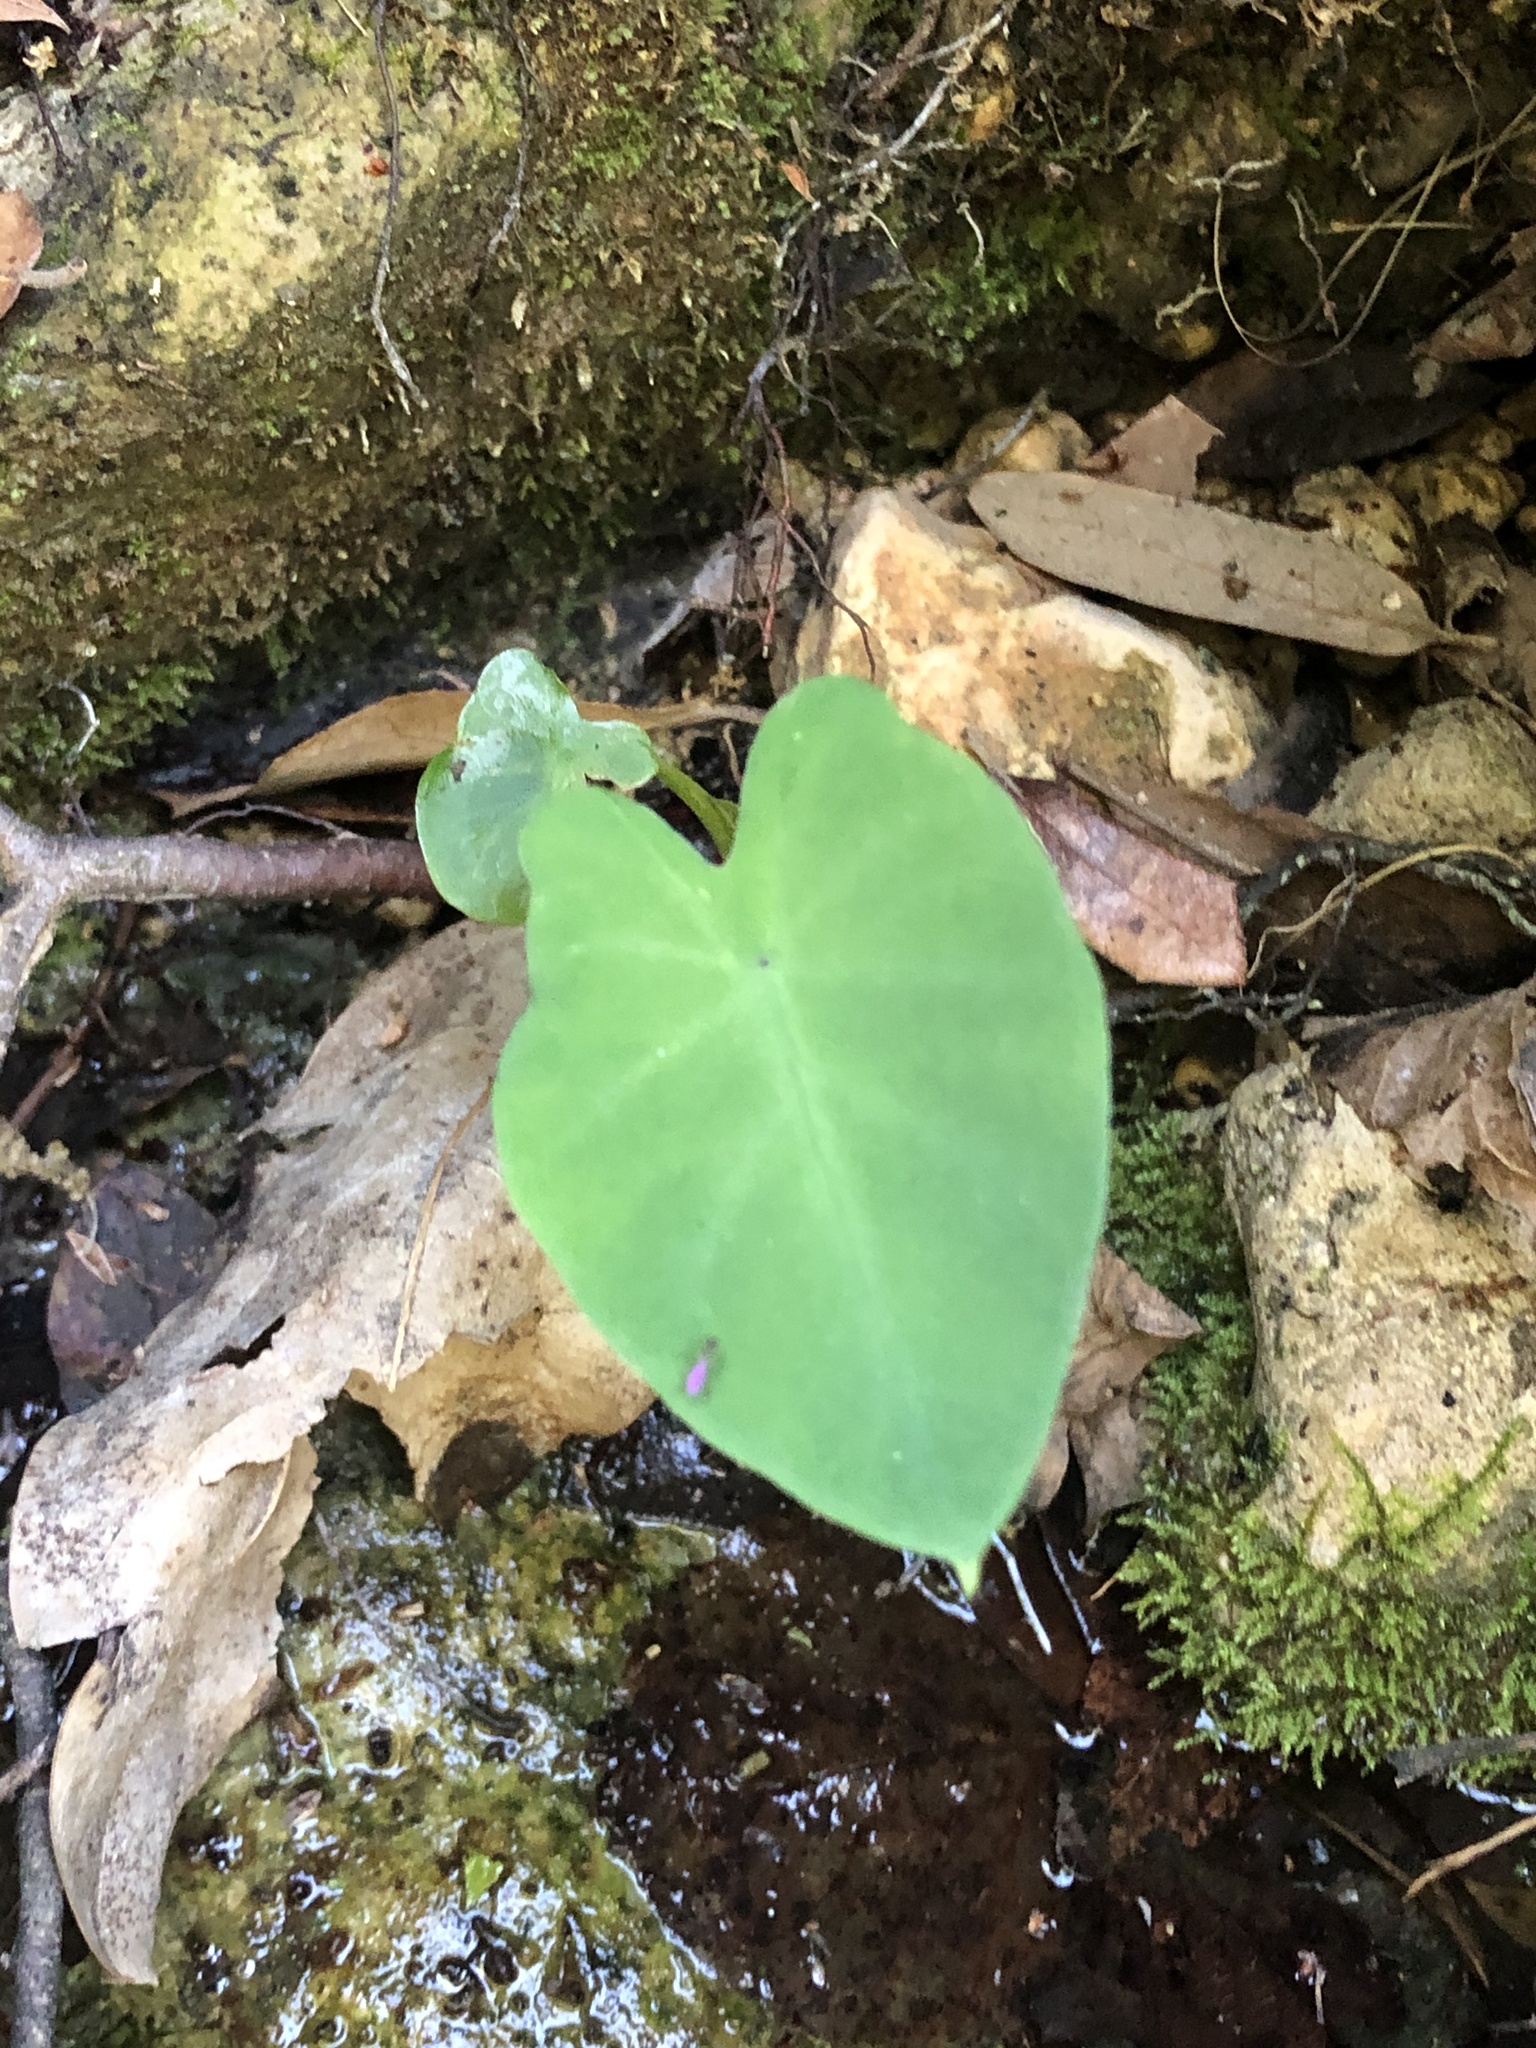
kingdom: Plantae
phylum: Tracheophyta
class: Liliopsida
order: Alismatales
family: Araceae
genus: Colocasia
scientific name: Colocasia esculenta
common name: Taro
